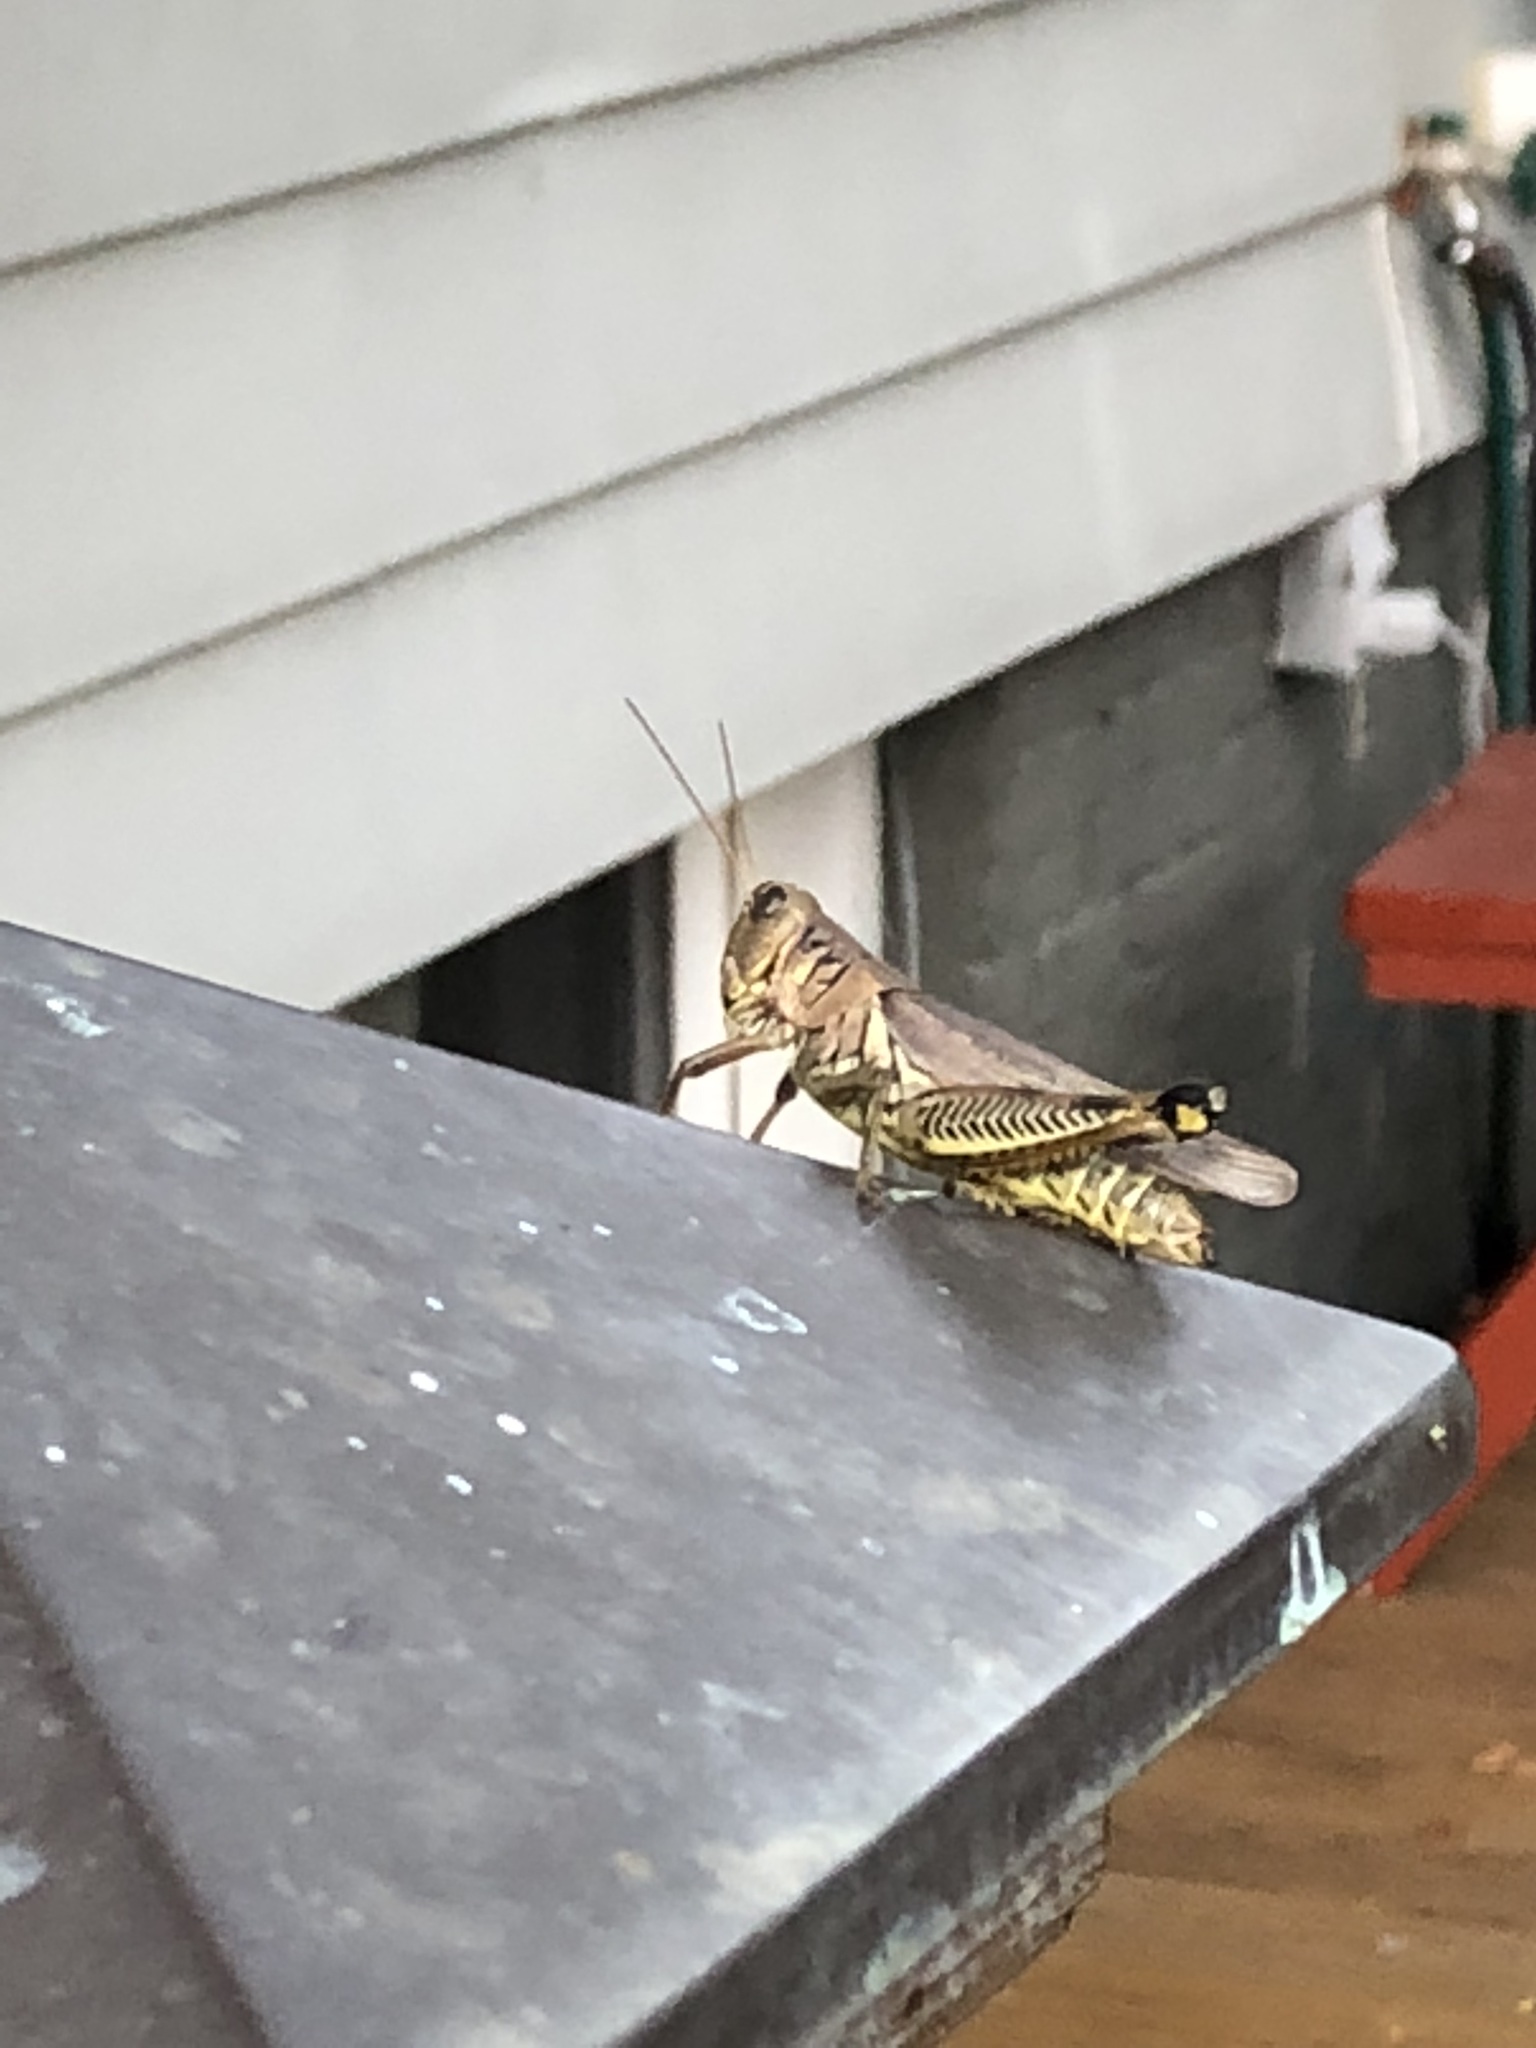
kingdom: Animalia
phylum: Arthropoda
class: Insecta
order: Orthoptera
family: Acrididae
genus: Melanoplus
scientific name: Melanoplus differentialis
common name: Differential grasshopper
